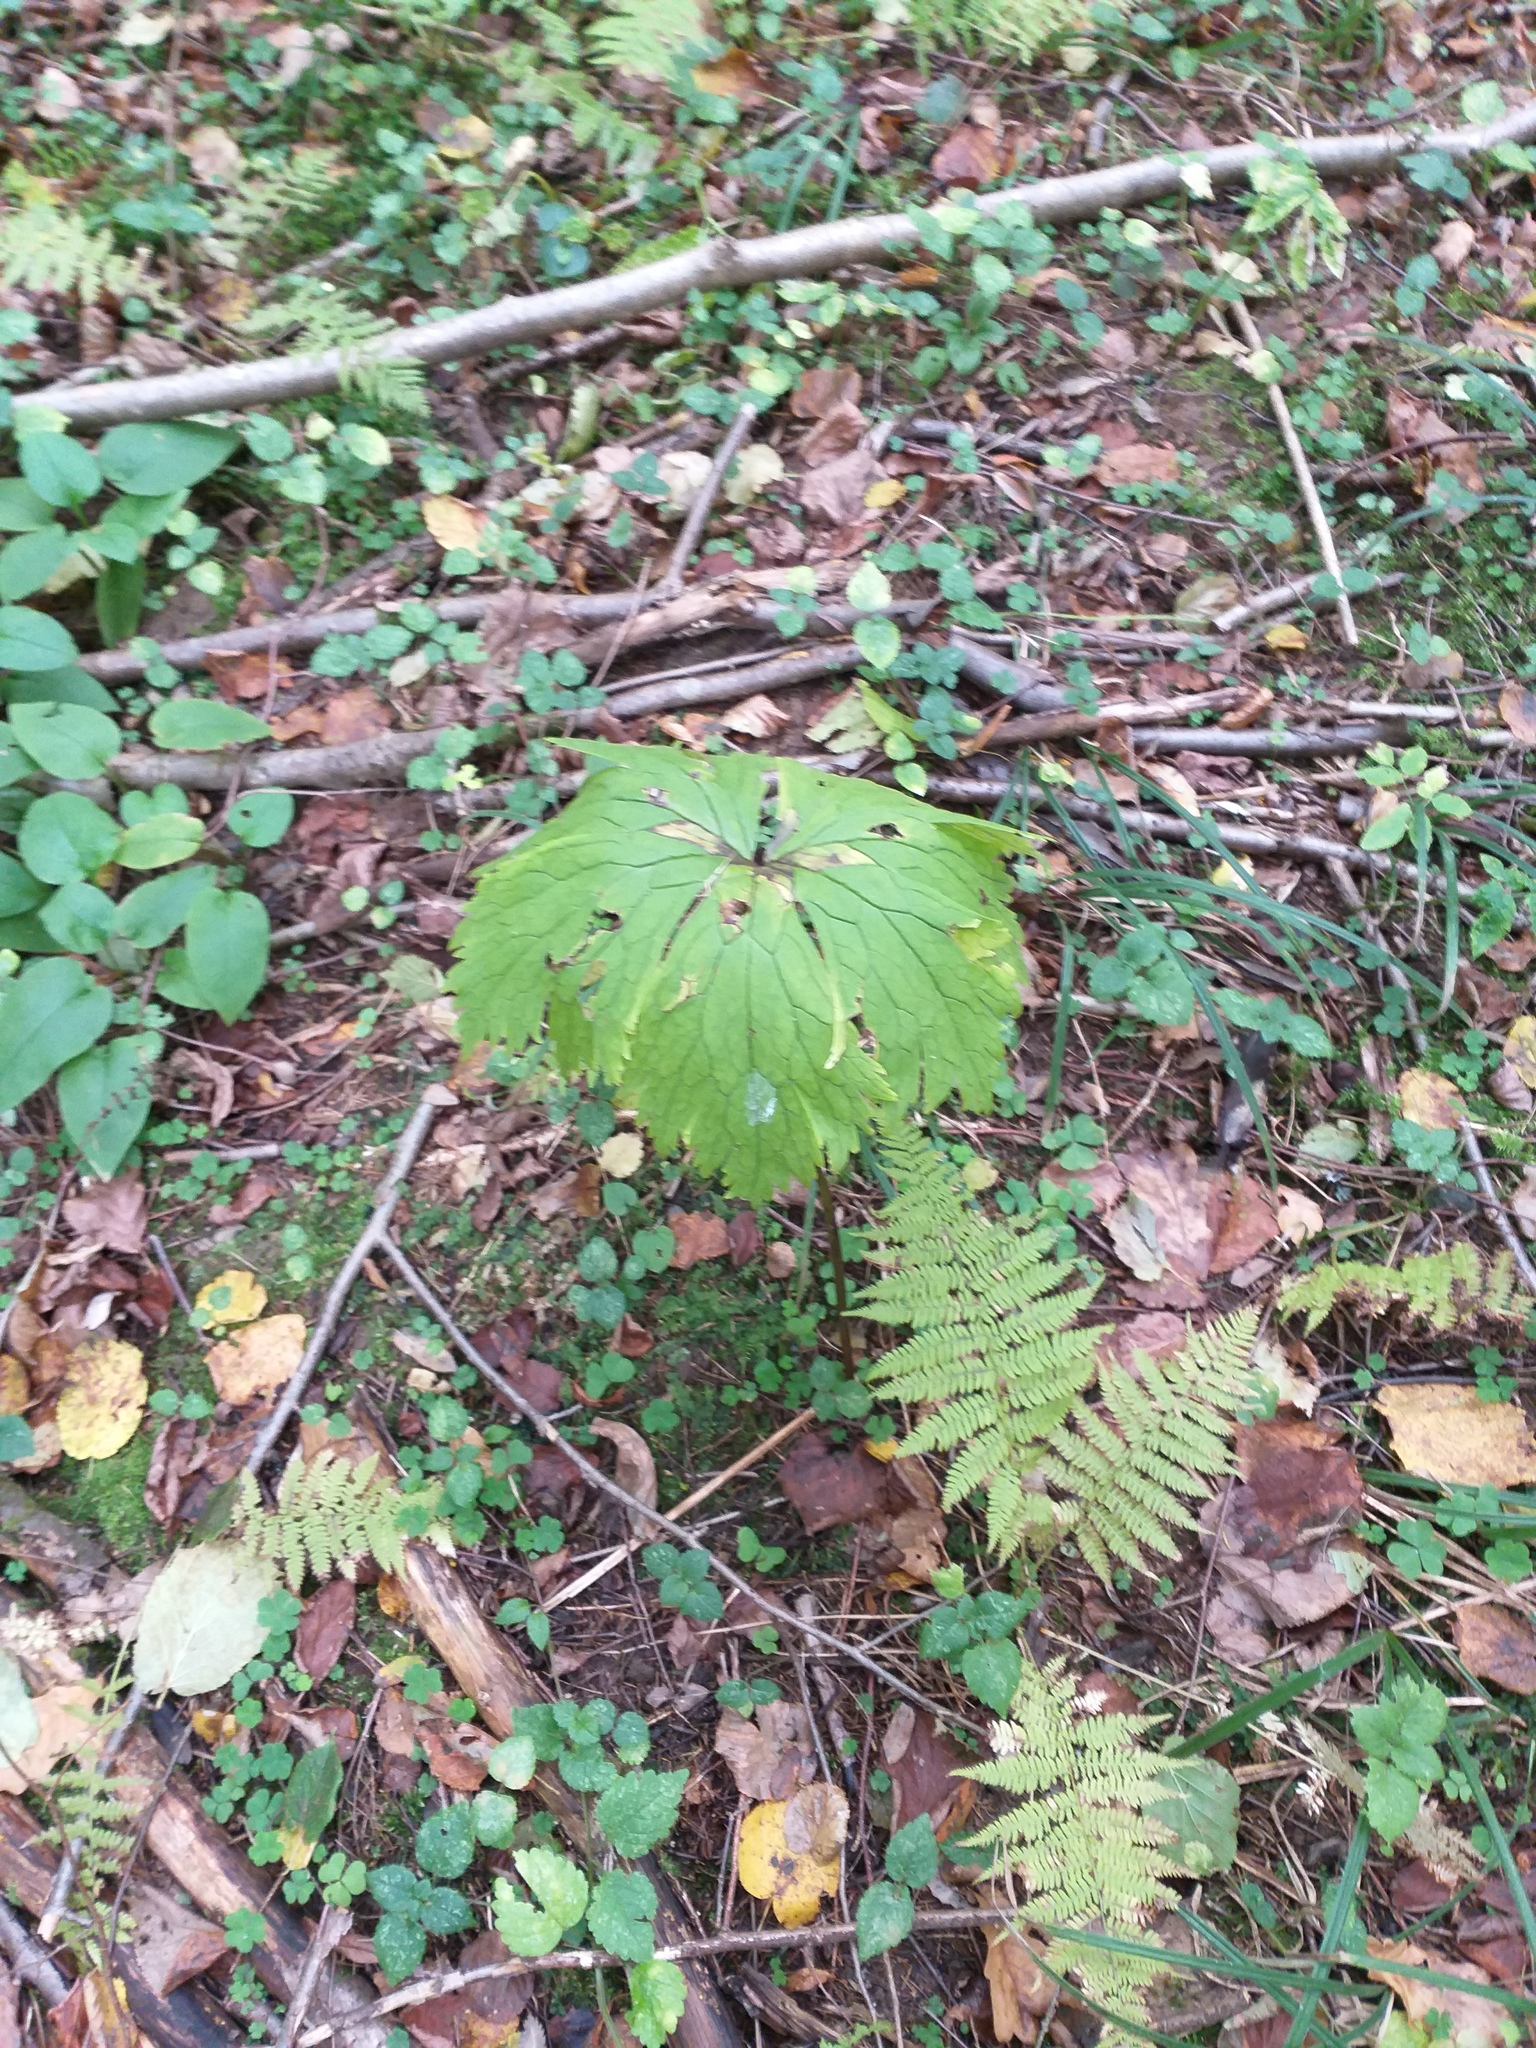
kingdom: Plantae
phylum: Tracheophyta
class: Magnoliopsida
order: Ranunculales
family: Ranunculaceae
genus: Aconitum
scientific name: Aconitum septentrionale
